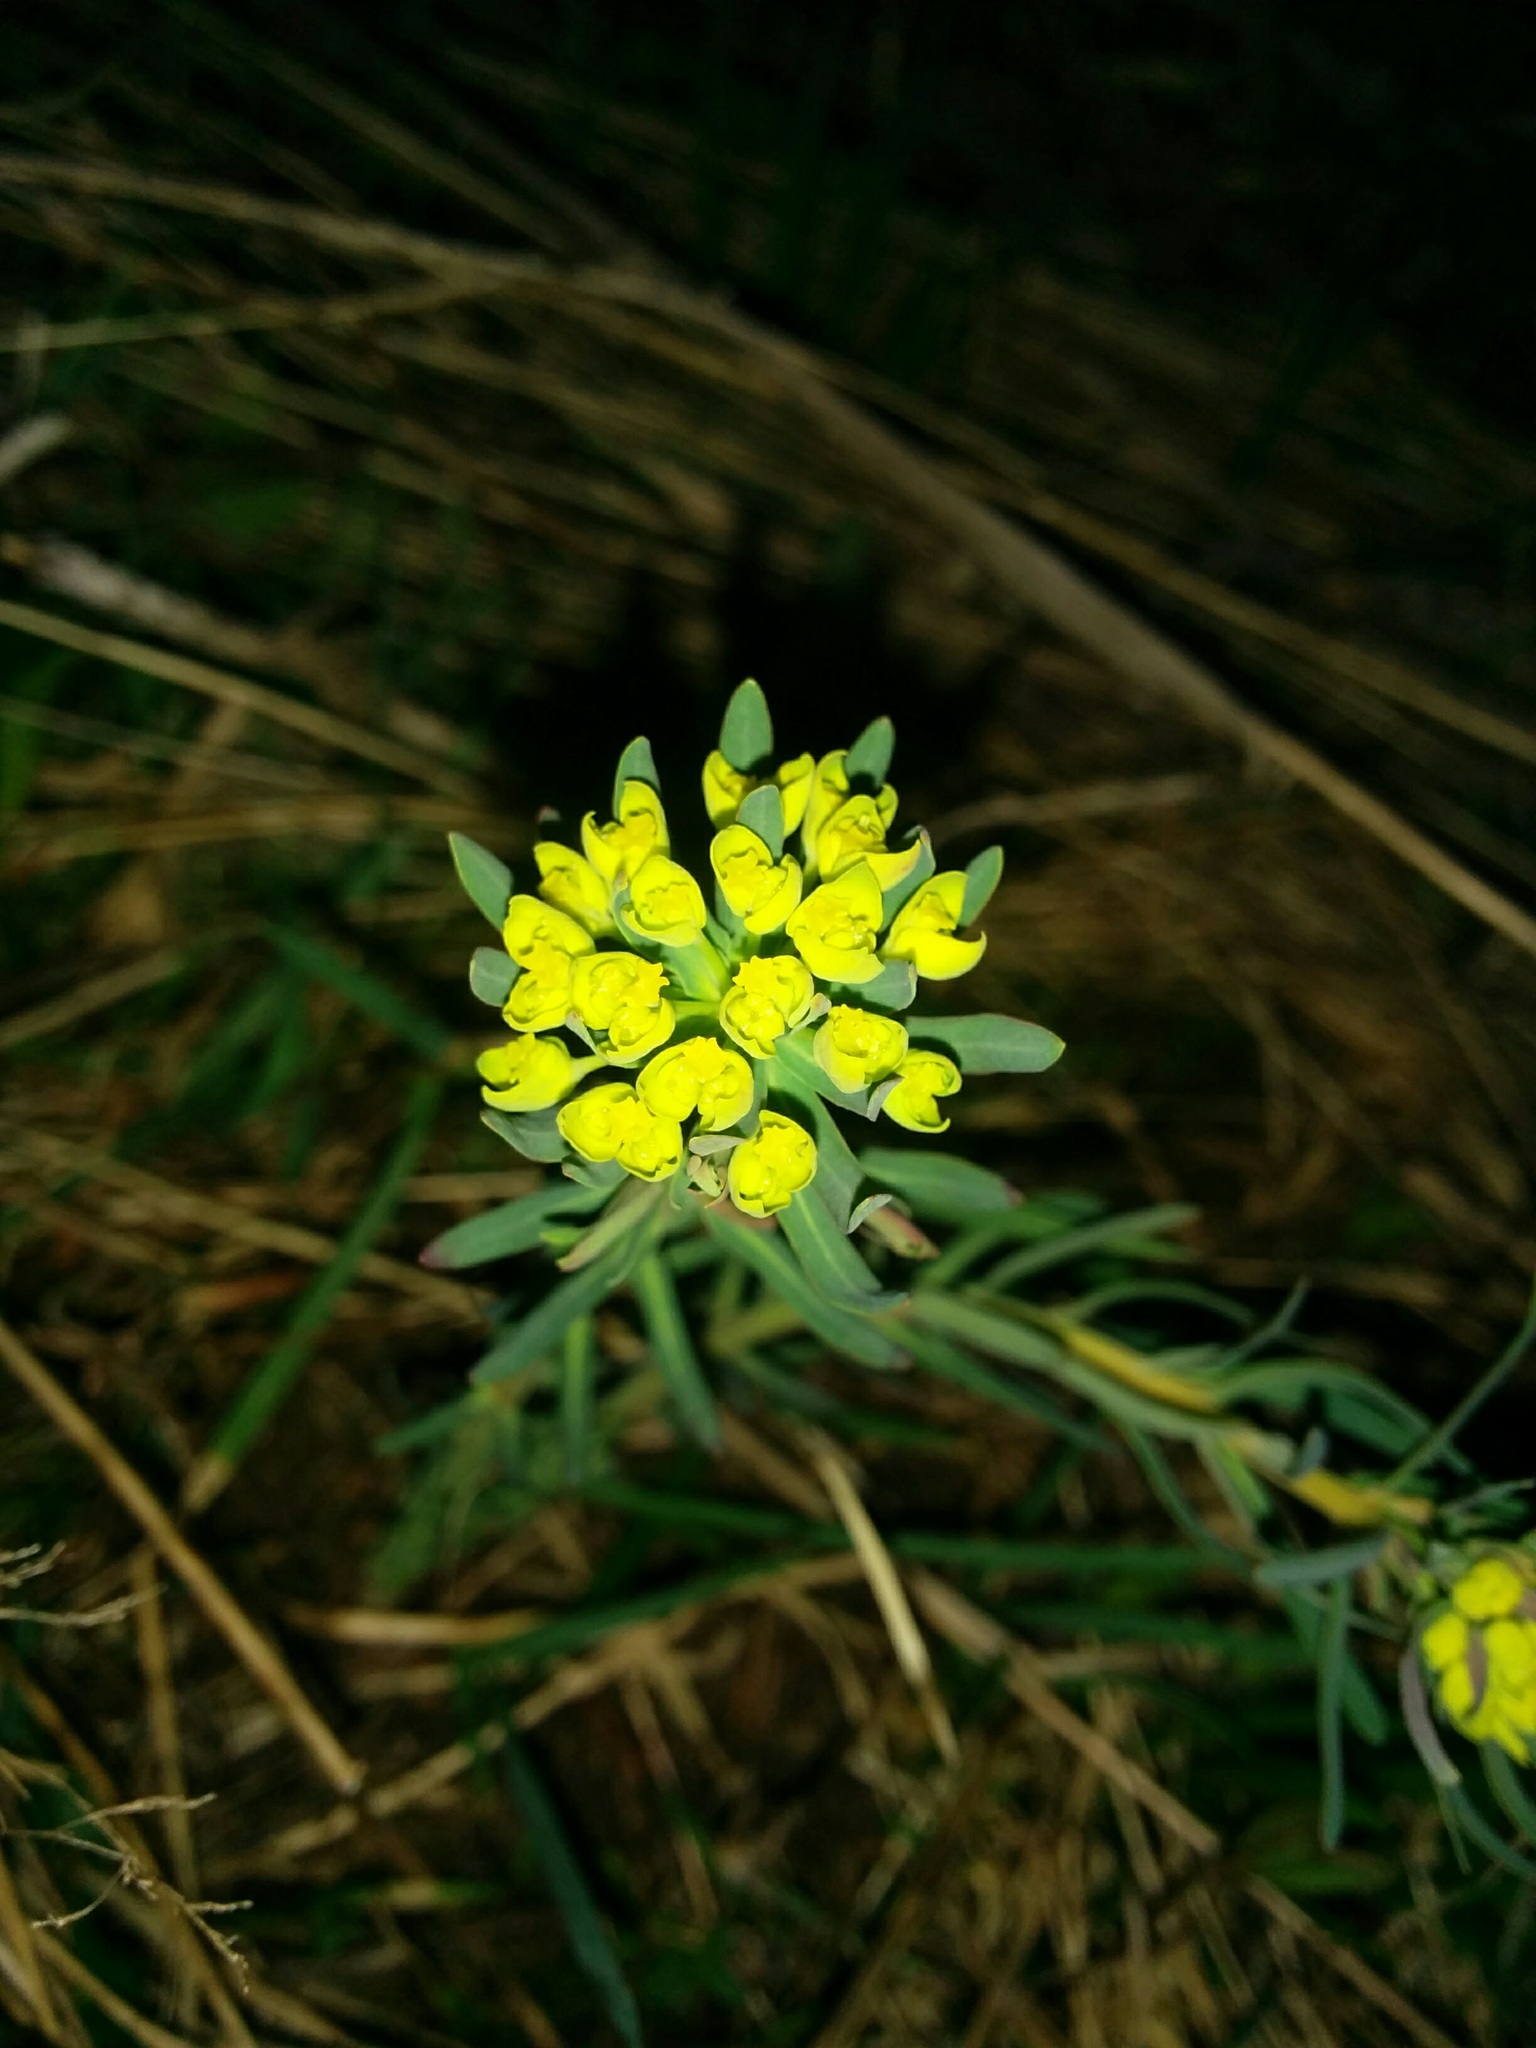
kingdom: Plantae
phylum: Tracheophyta
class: Magnoliopsida
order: Malpighiales
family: Euphorbiaceae
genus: Euphorbia
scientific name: Euphorbia cyparissias
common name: Cypress spurge
